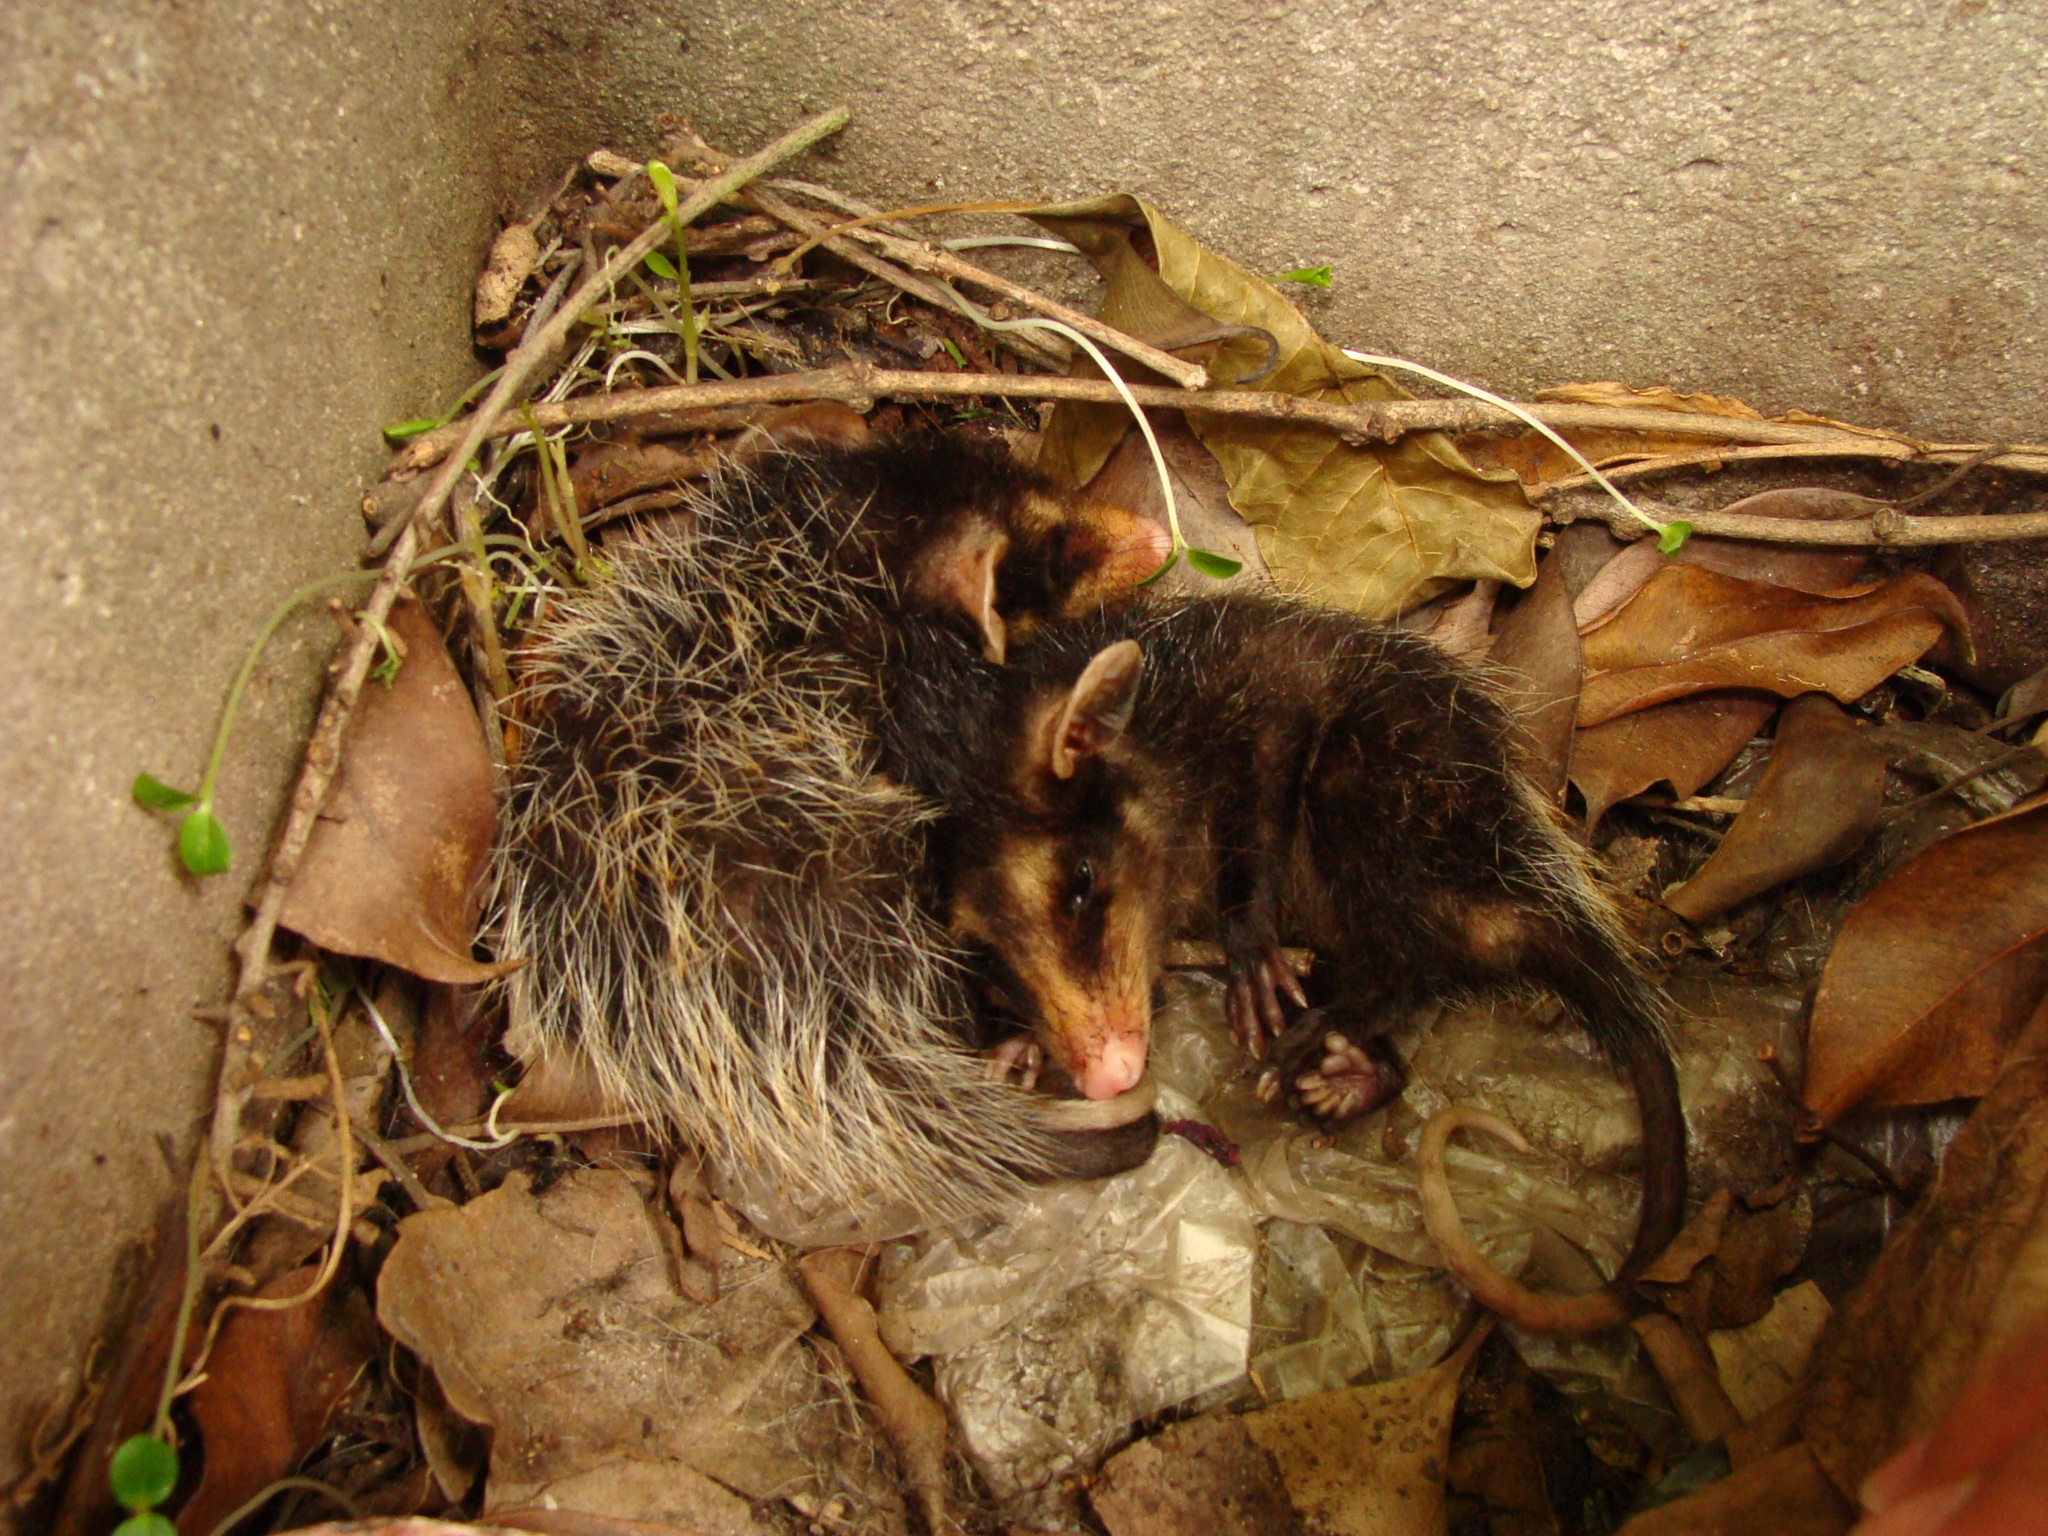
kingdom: Animalia
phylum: Chordata
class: Mammalia
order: Didelphimorphia
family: Didelphidae
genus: Didelphis
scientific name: Didelphis aurita
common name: Big-eared opossum
